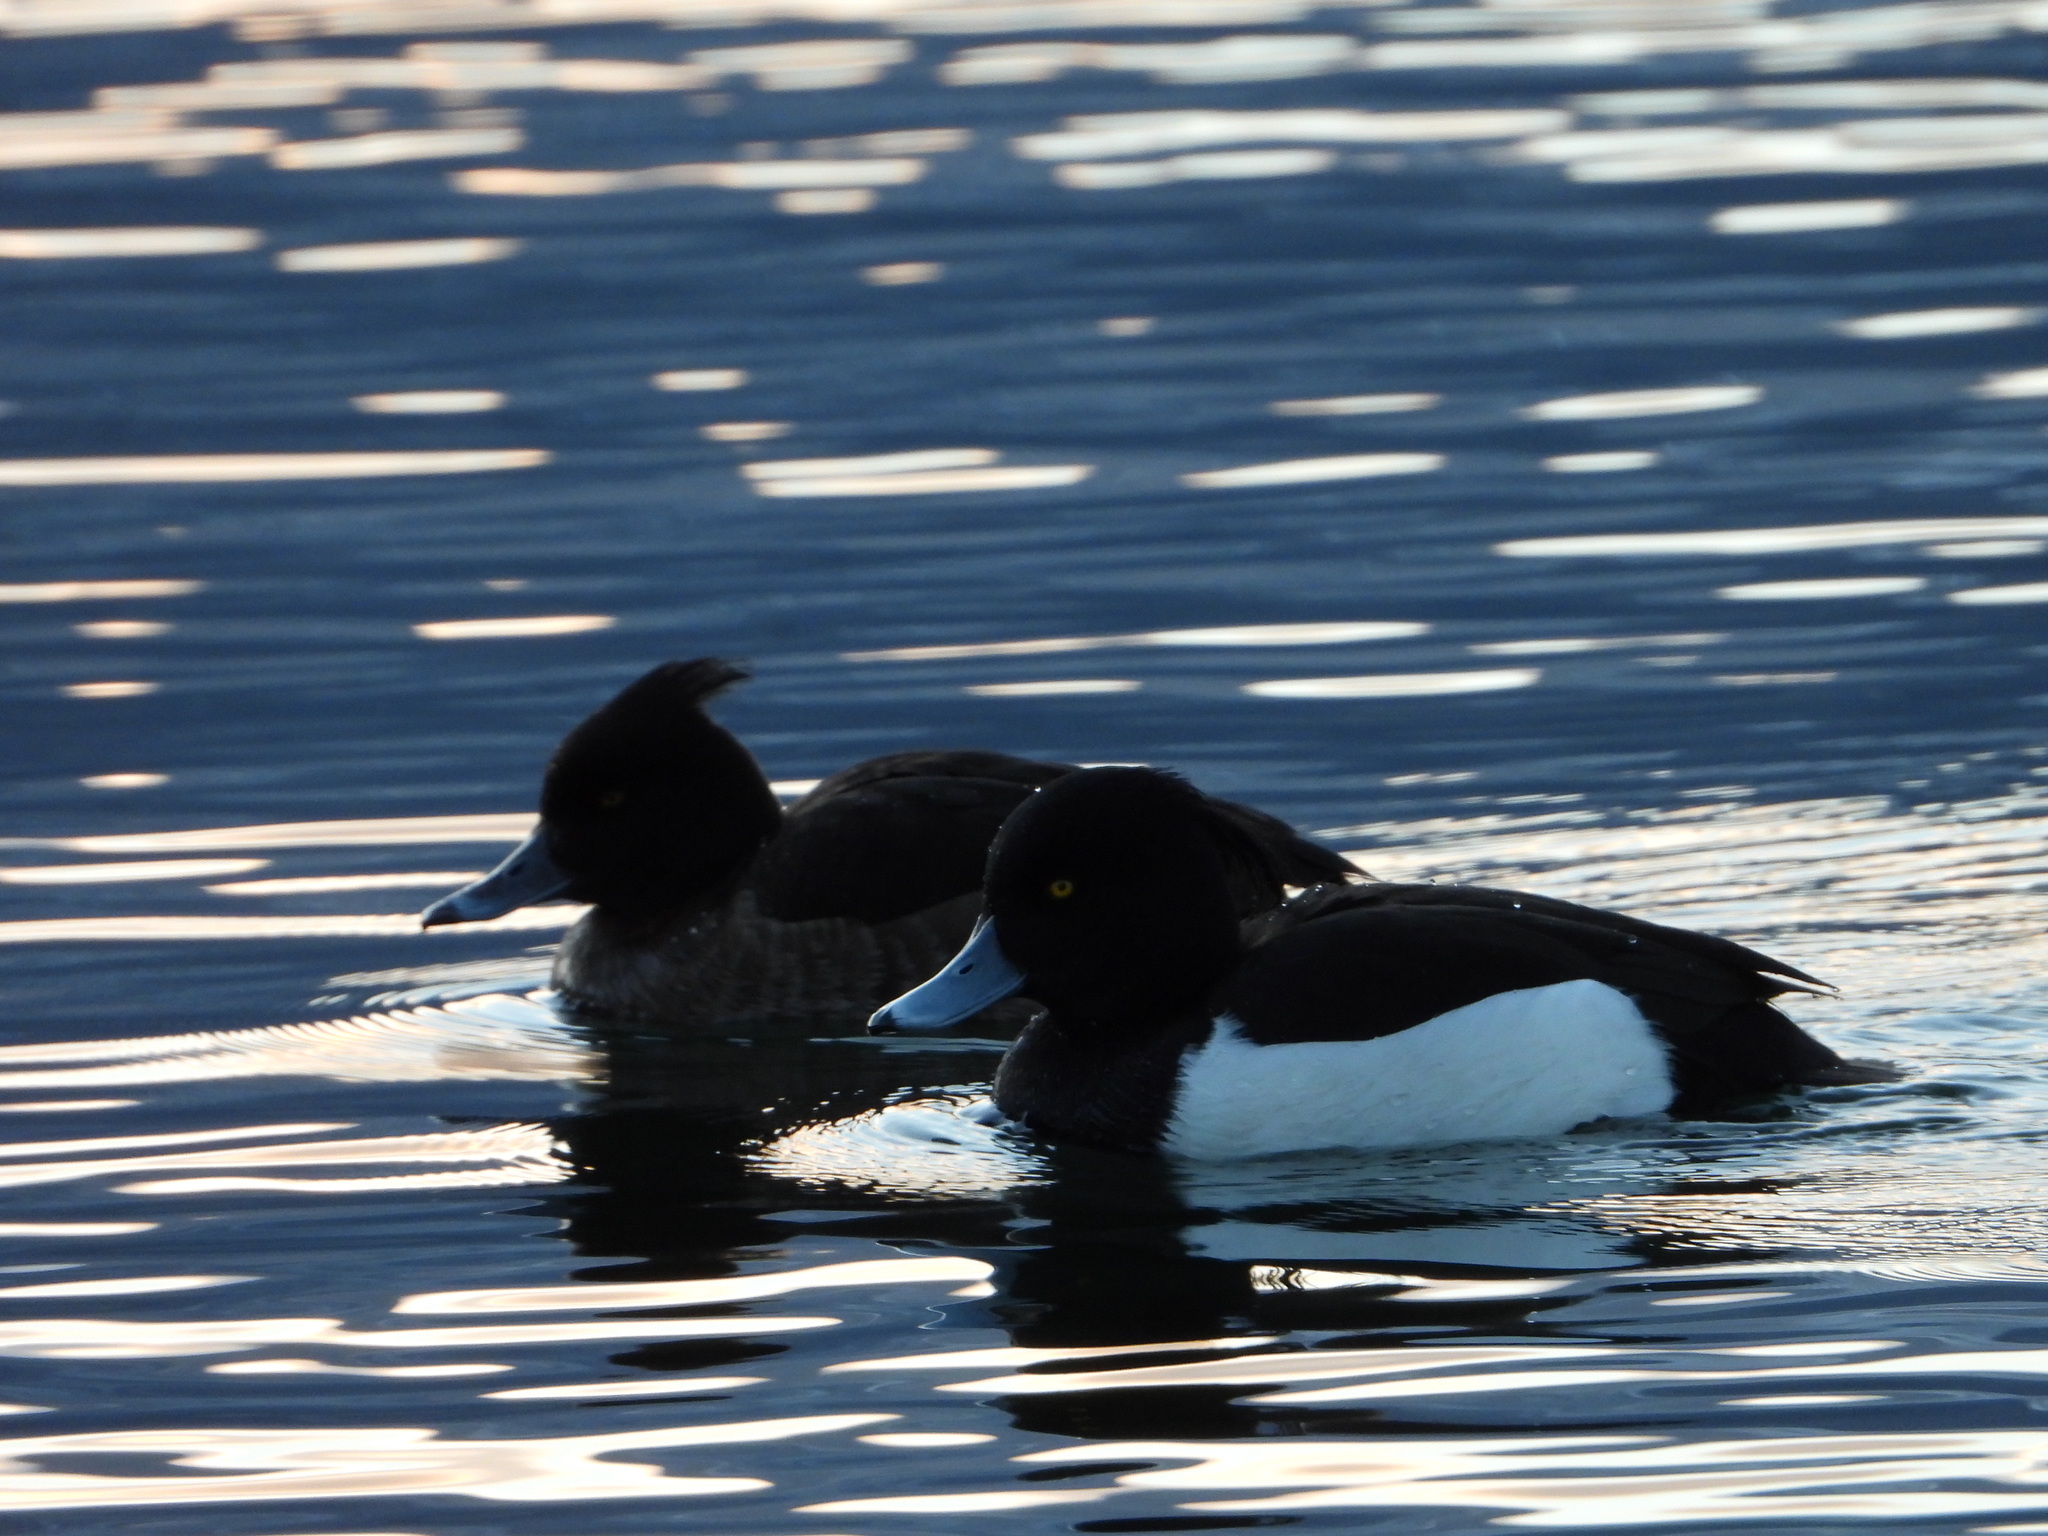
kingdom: Animalia
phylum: Chordata
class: Aves
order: Anseriformes
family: Anatidae
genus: Aythya
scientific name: Aythya fuligula
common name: Tufted duck
